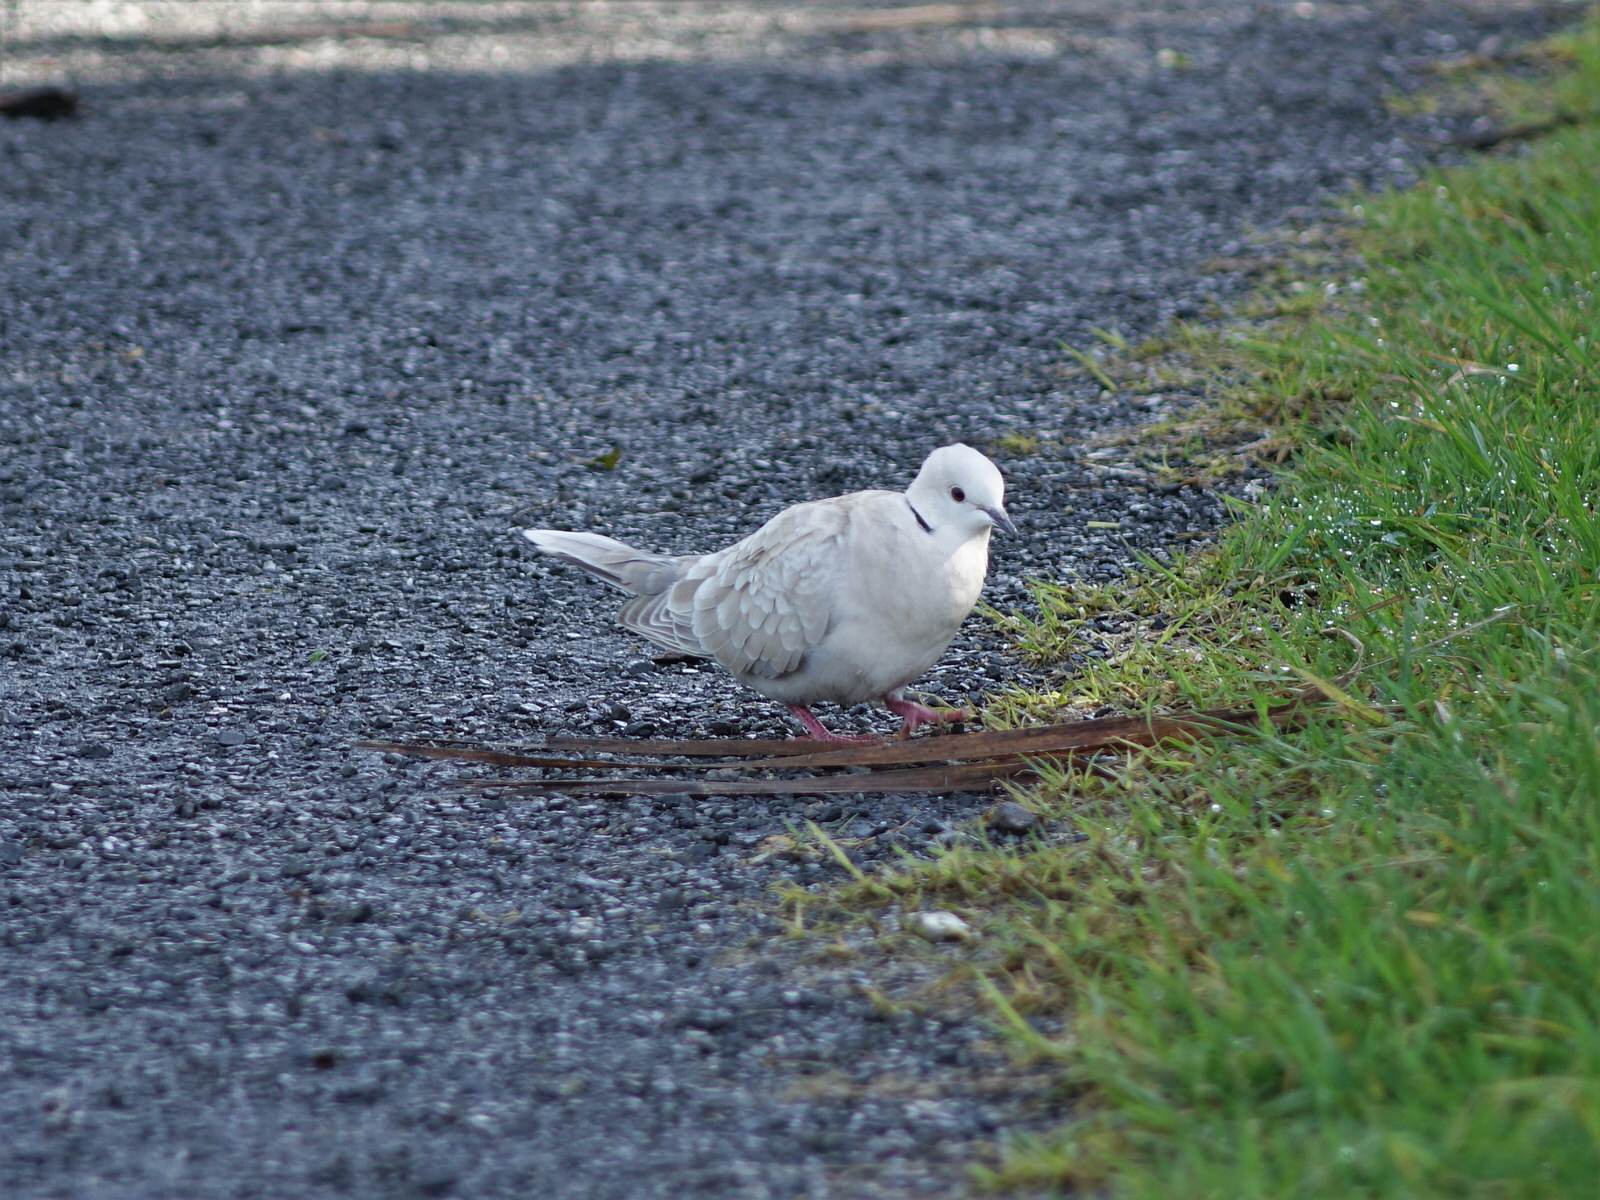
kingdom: Animalia
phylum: Chordata
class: Aves
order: Columbiformes
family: Columbidae
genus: Streptopelia
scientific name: Streptopelia roseogrisea
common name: African collared dove
